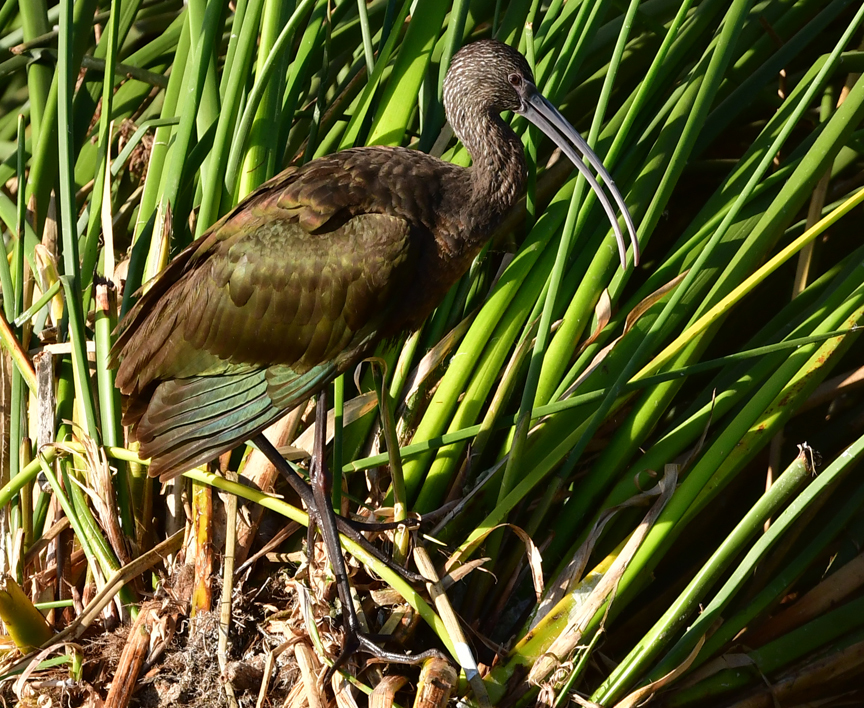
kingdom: Animalia
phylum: Chordata
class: Aves
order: Pelecaniformes
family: Threskiornithidae
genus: Plegadis
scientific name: Plegadis chihi
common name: White-faced ibis
